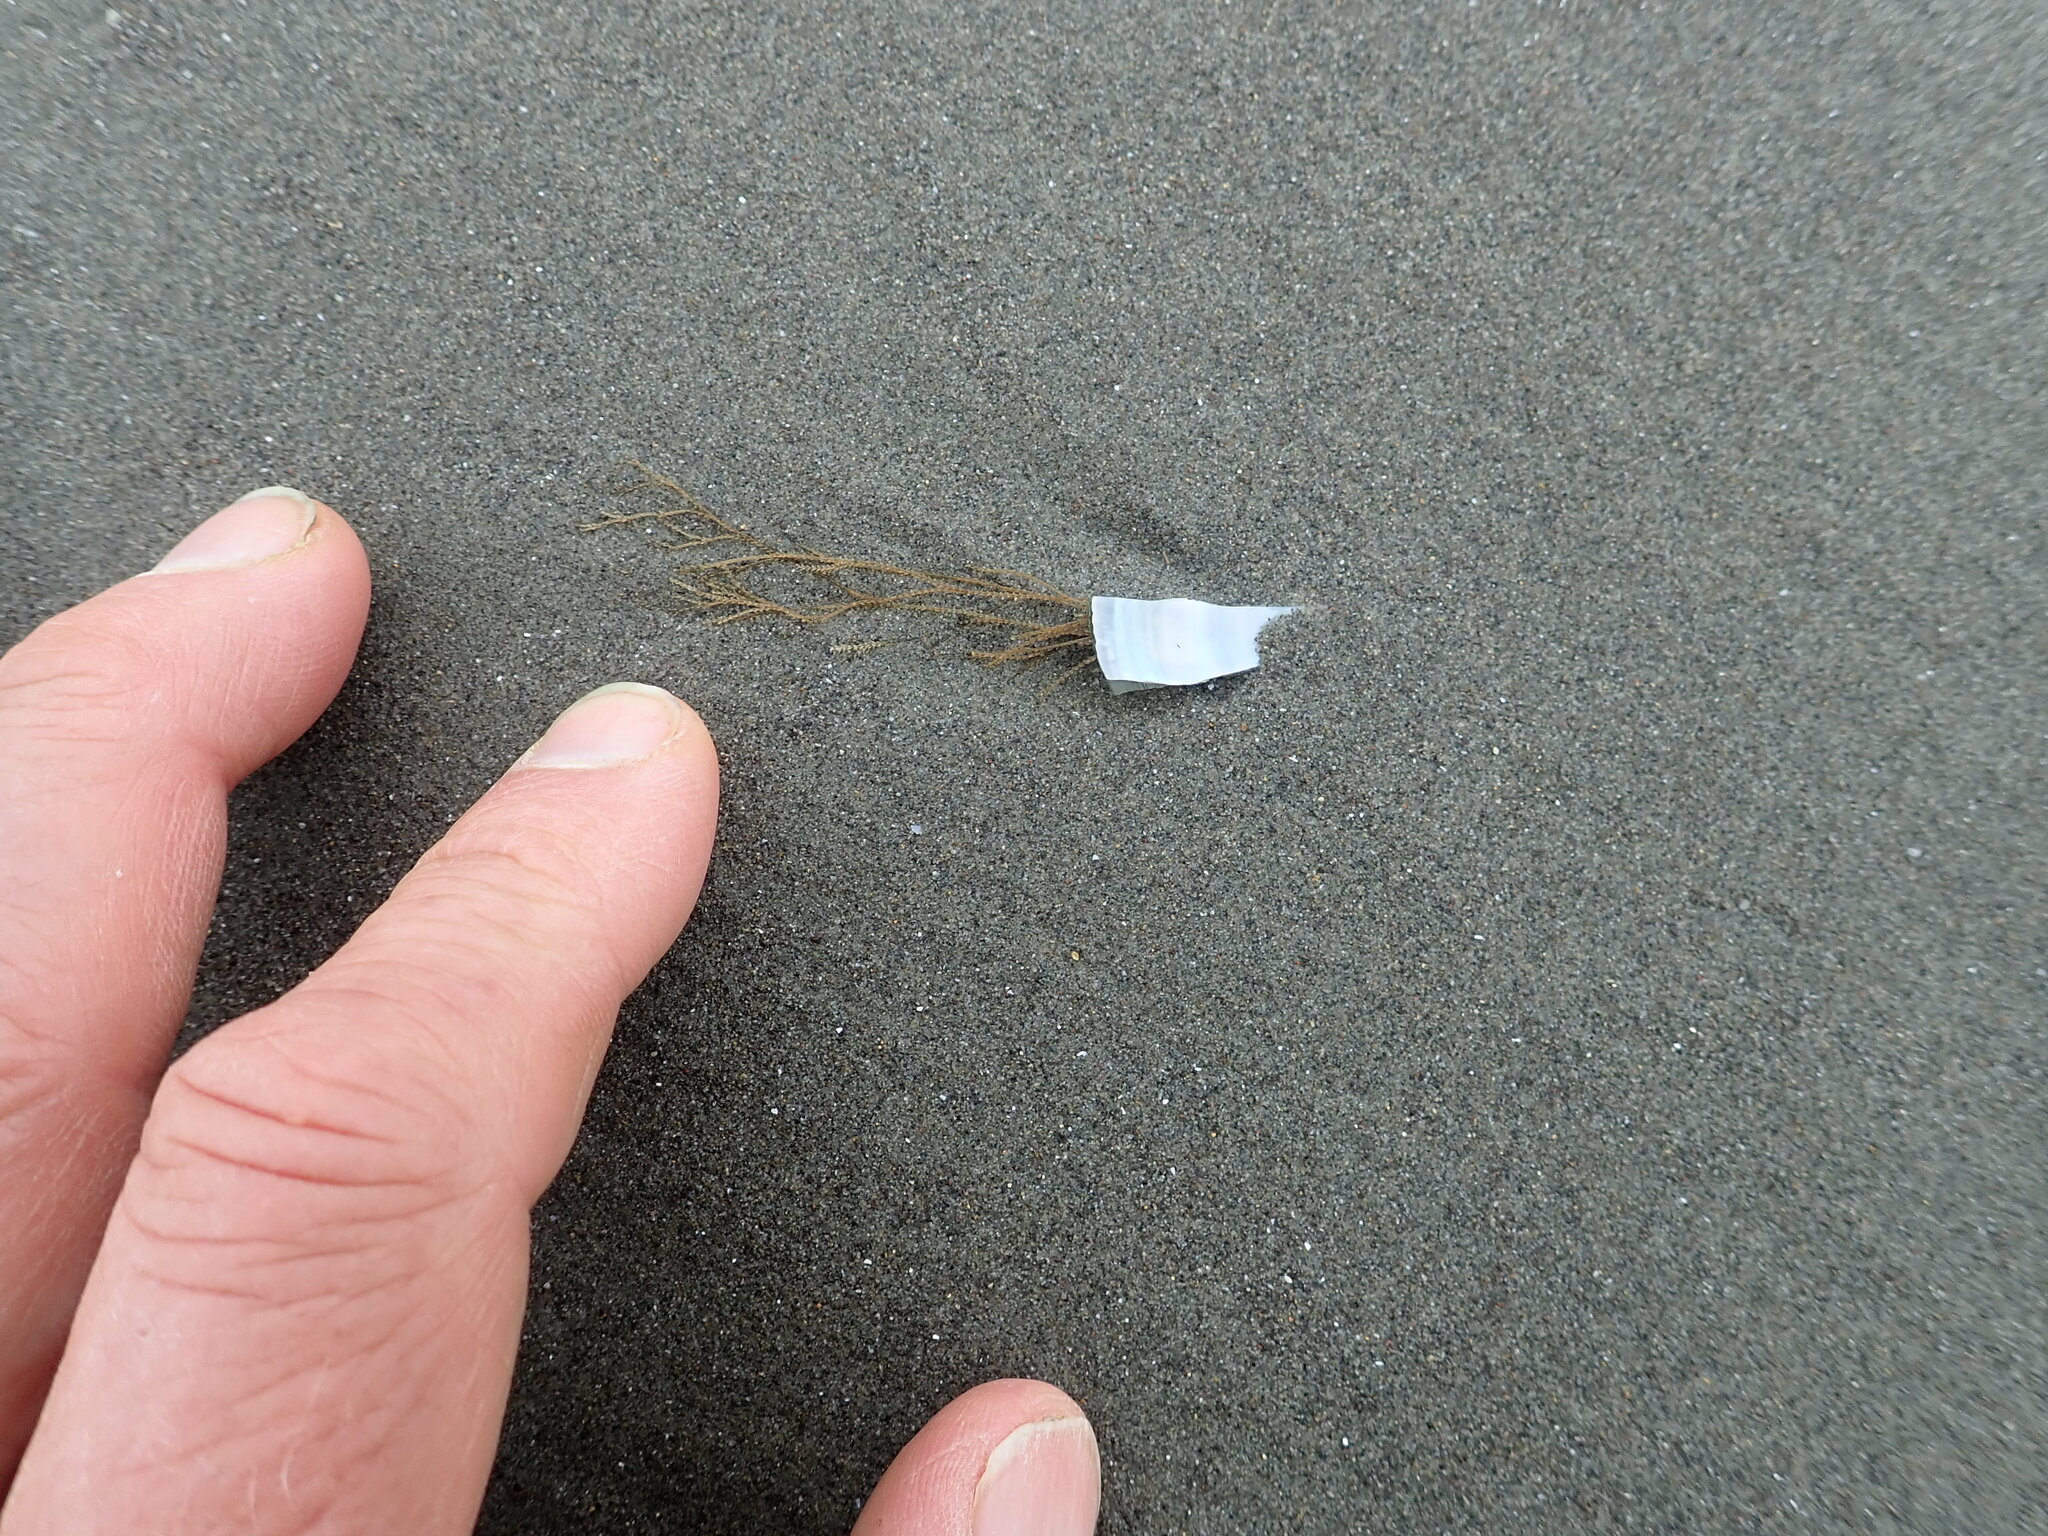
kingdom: Animalia
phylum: Cnidaria
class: Hydrozoa
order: Leptothecata
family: Sertulariidae
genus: Amphisbetia
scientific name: Amphisbetia bispinosa
